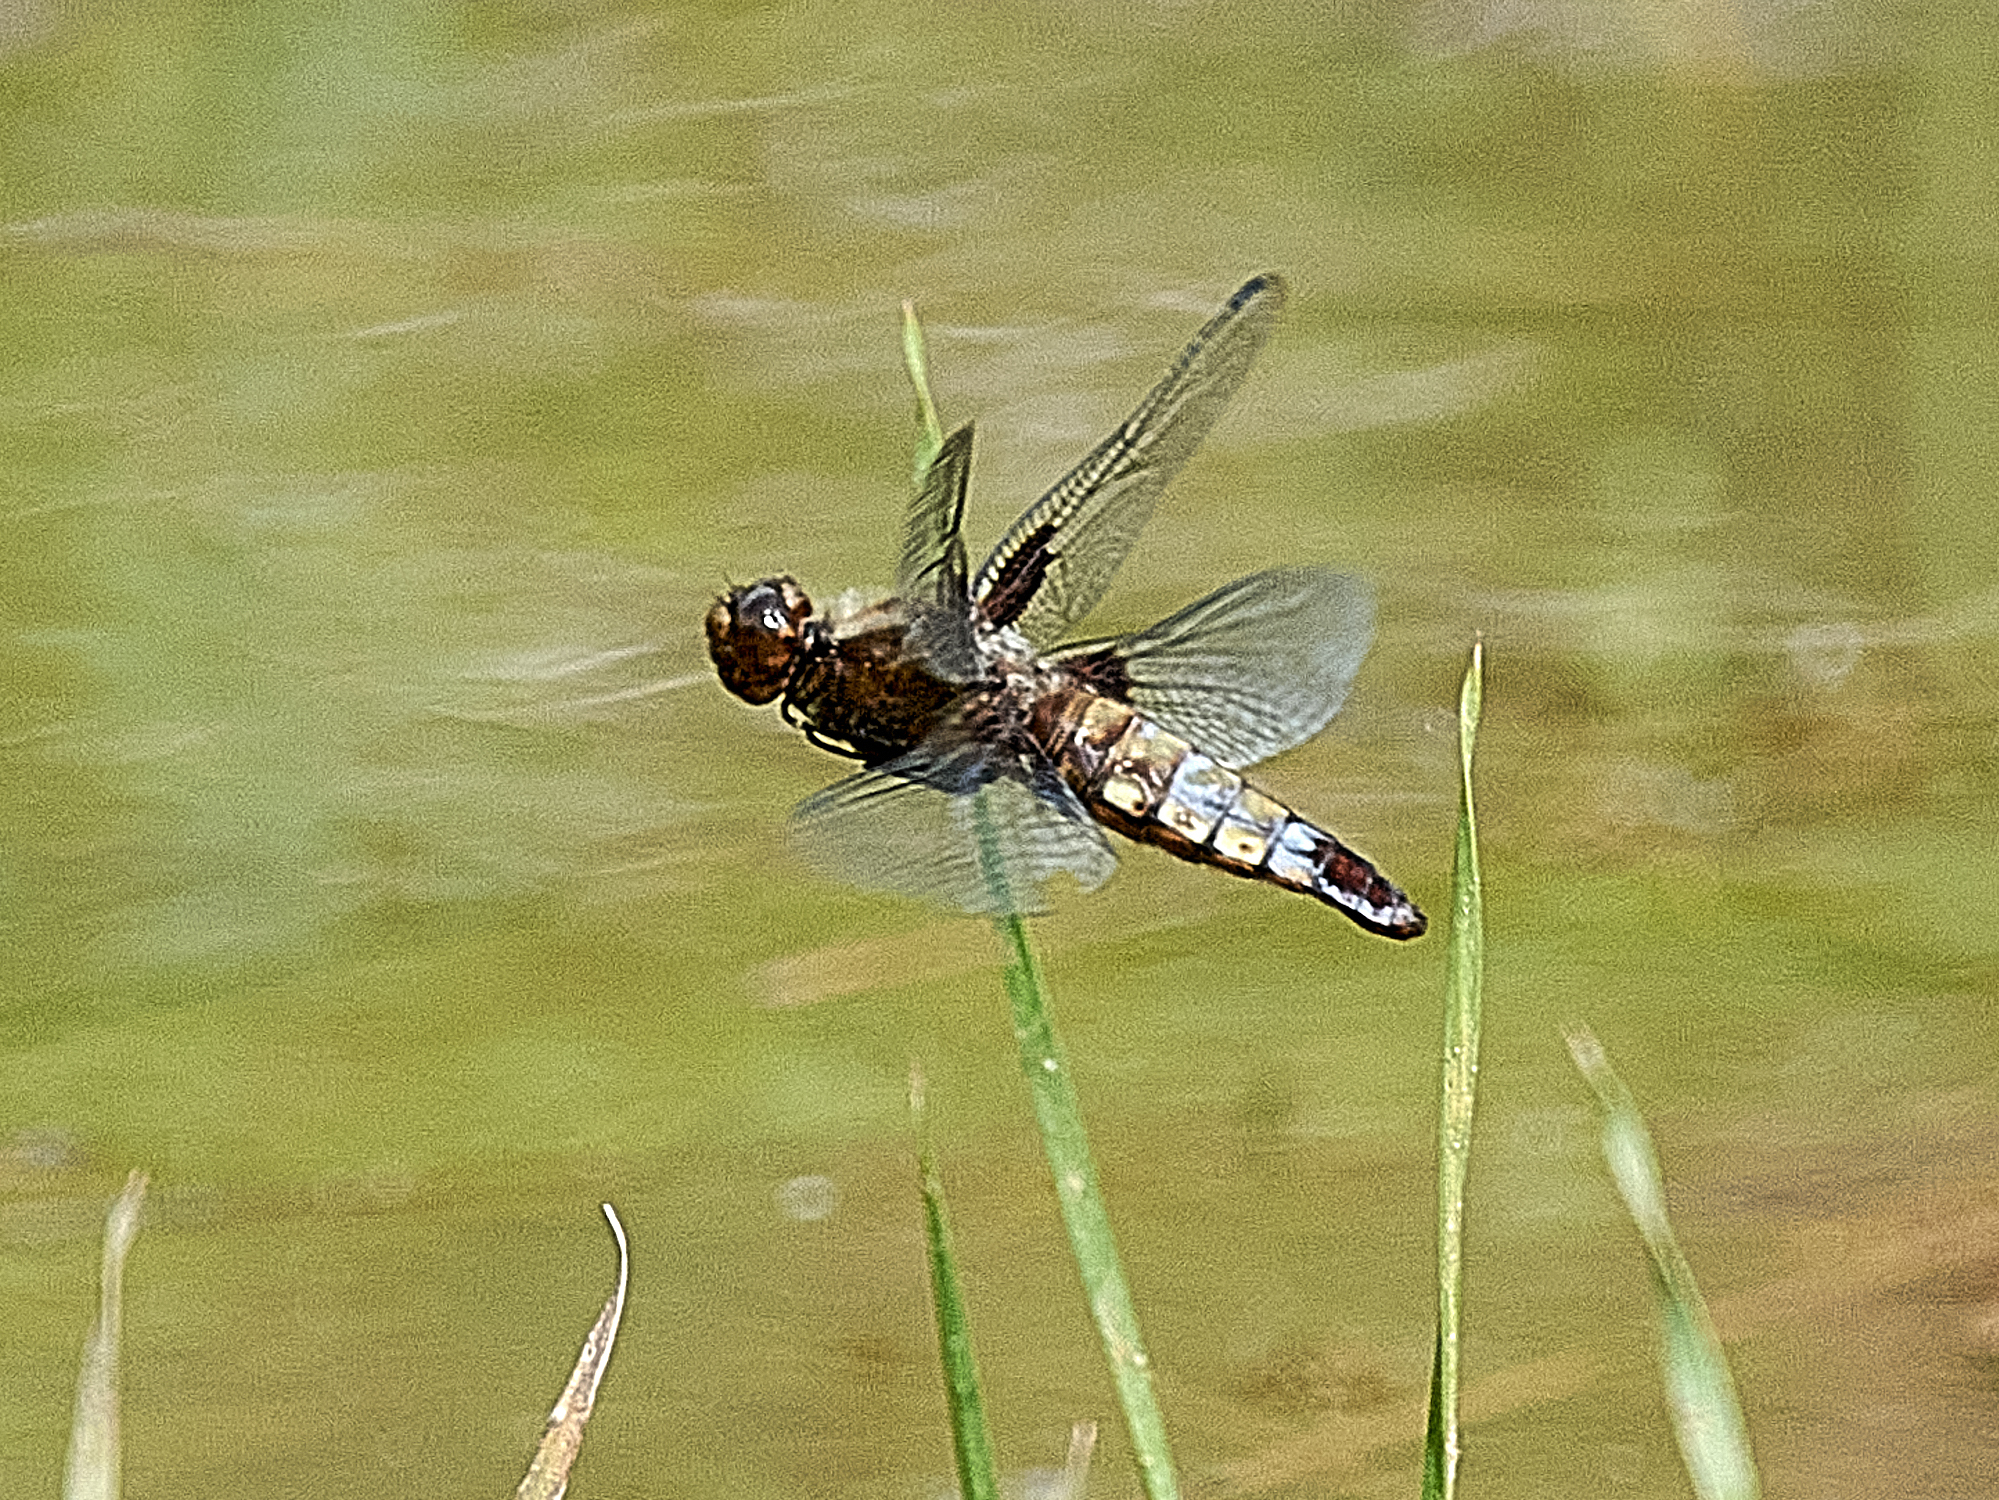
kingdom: Animalia
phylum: Arthropoda
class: Insecta
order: Odonata
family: Libellulidae
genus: Libellula
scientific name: Libellula depressa
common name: Broad-bodied chaser
